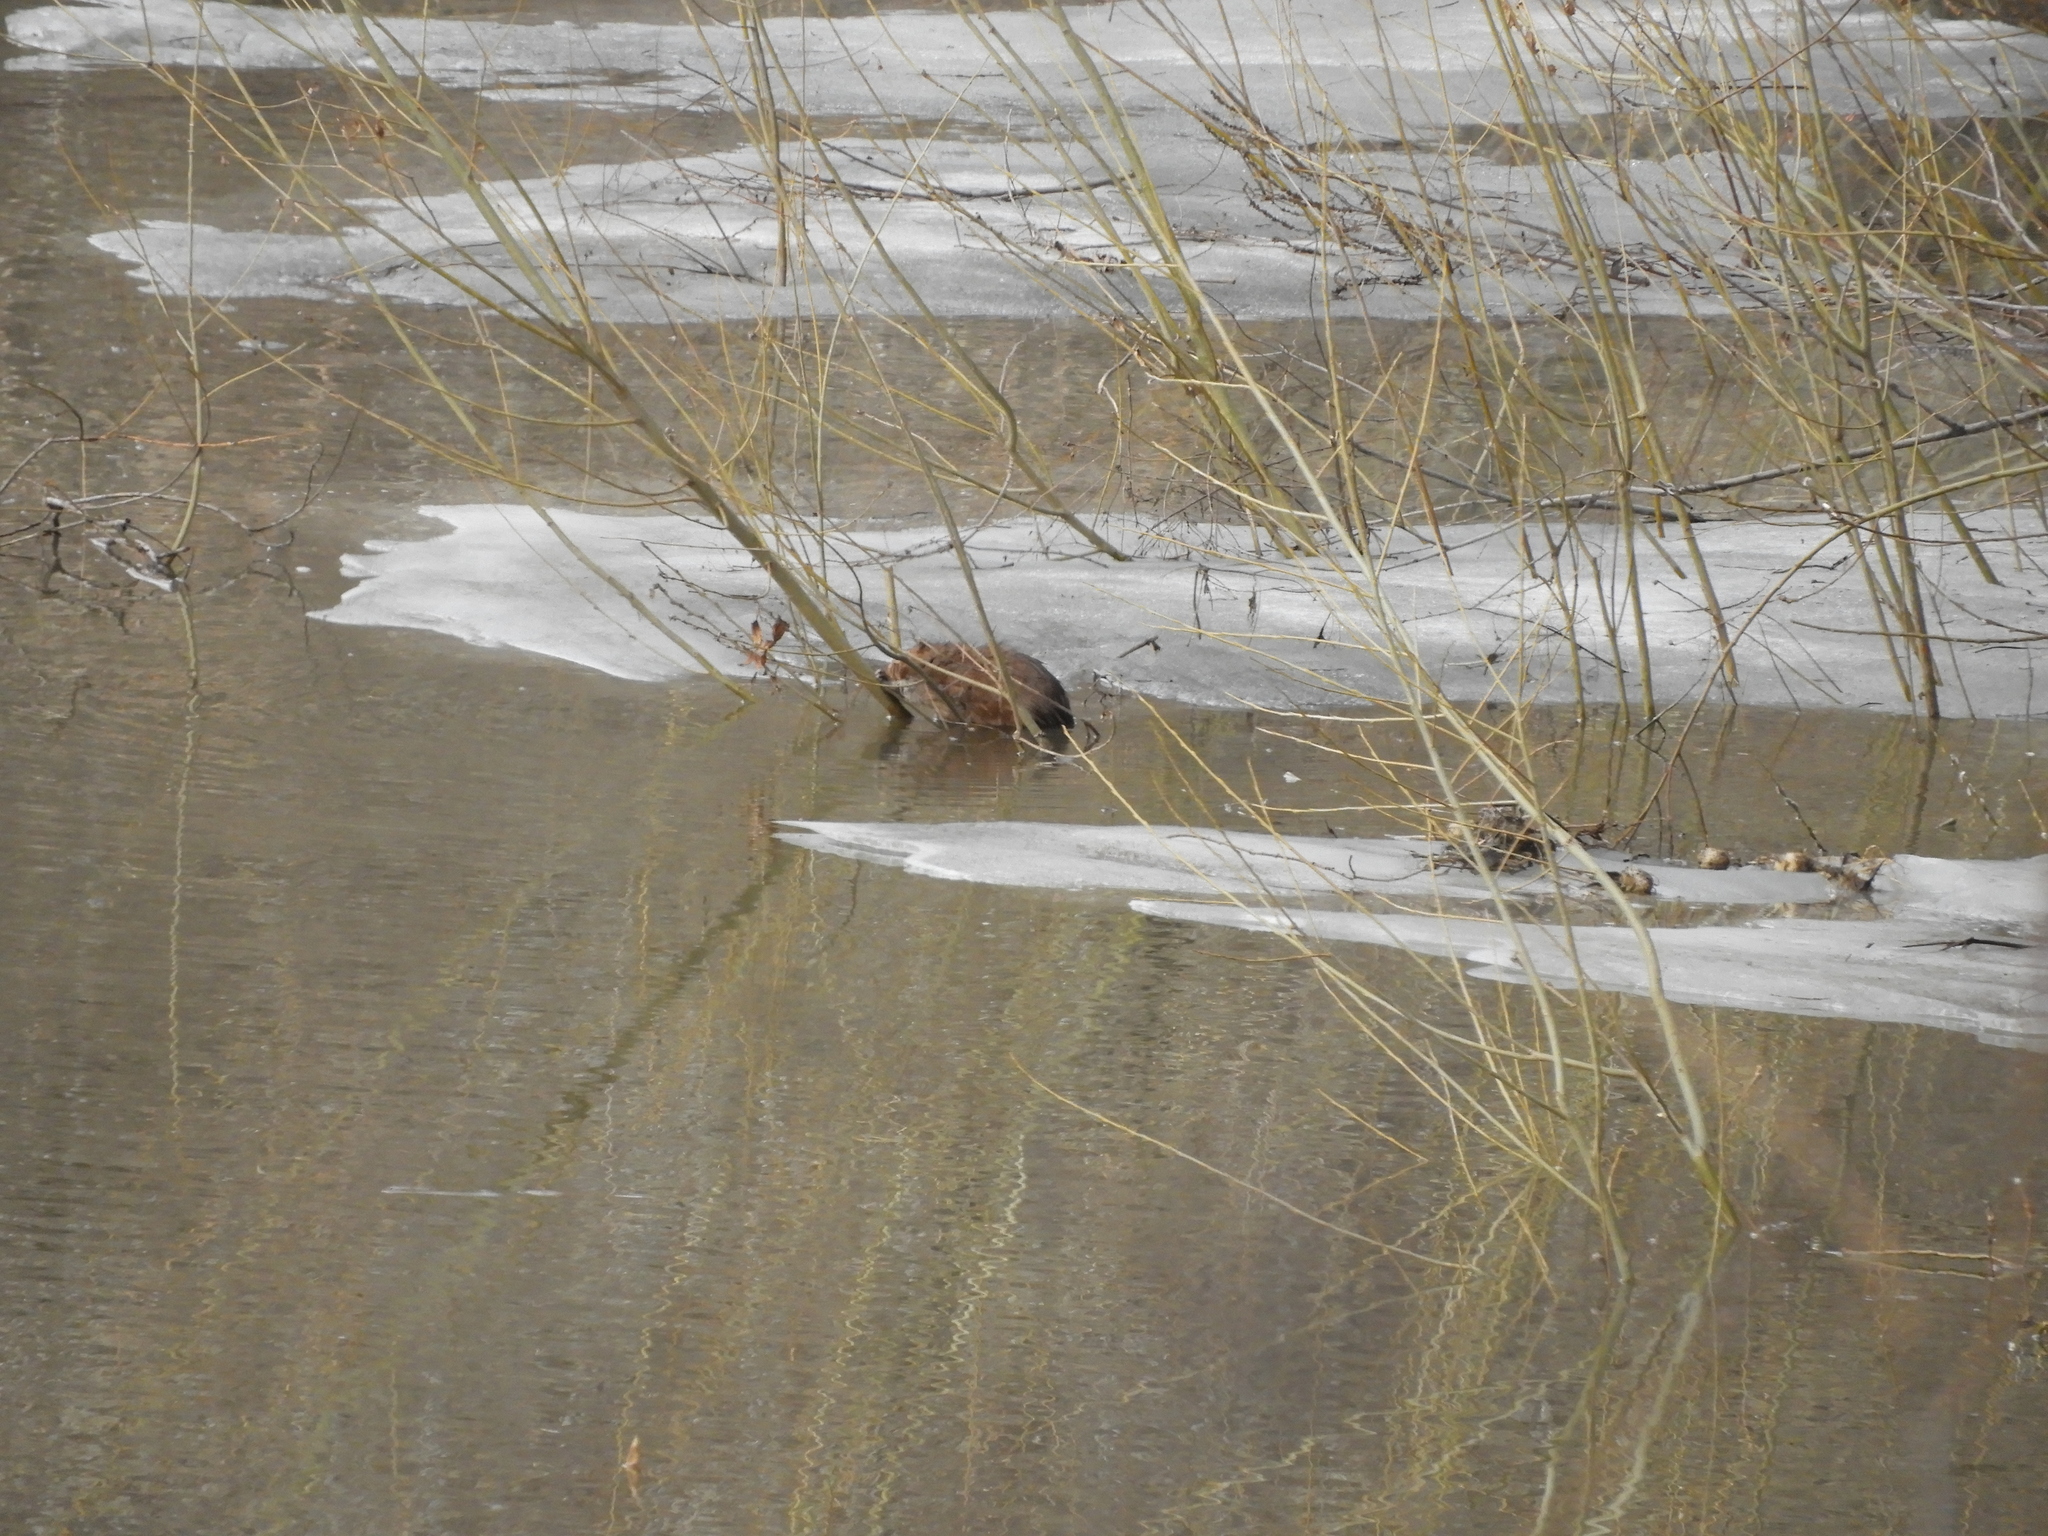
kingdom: Animalia
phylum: Chordata
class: Mammalia
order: Rodentia
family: Cricetidae
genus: Ondatra
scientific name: Ondatra zibethicus
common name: Muskrat
